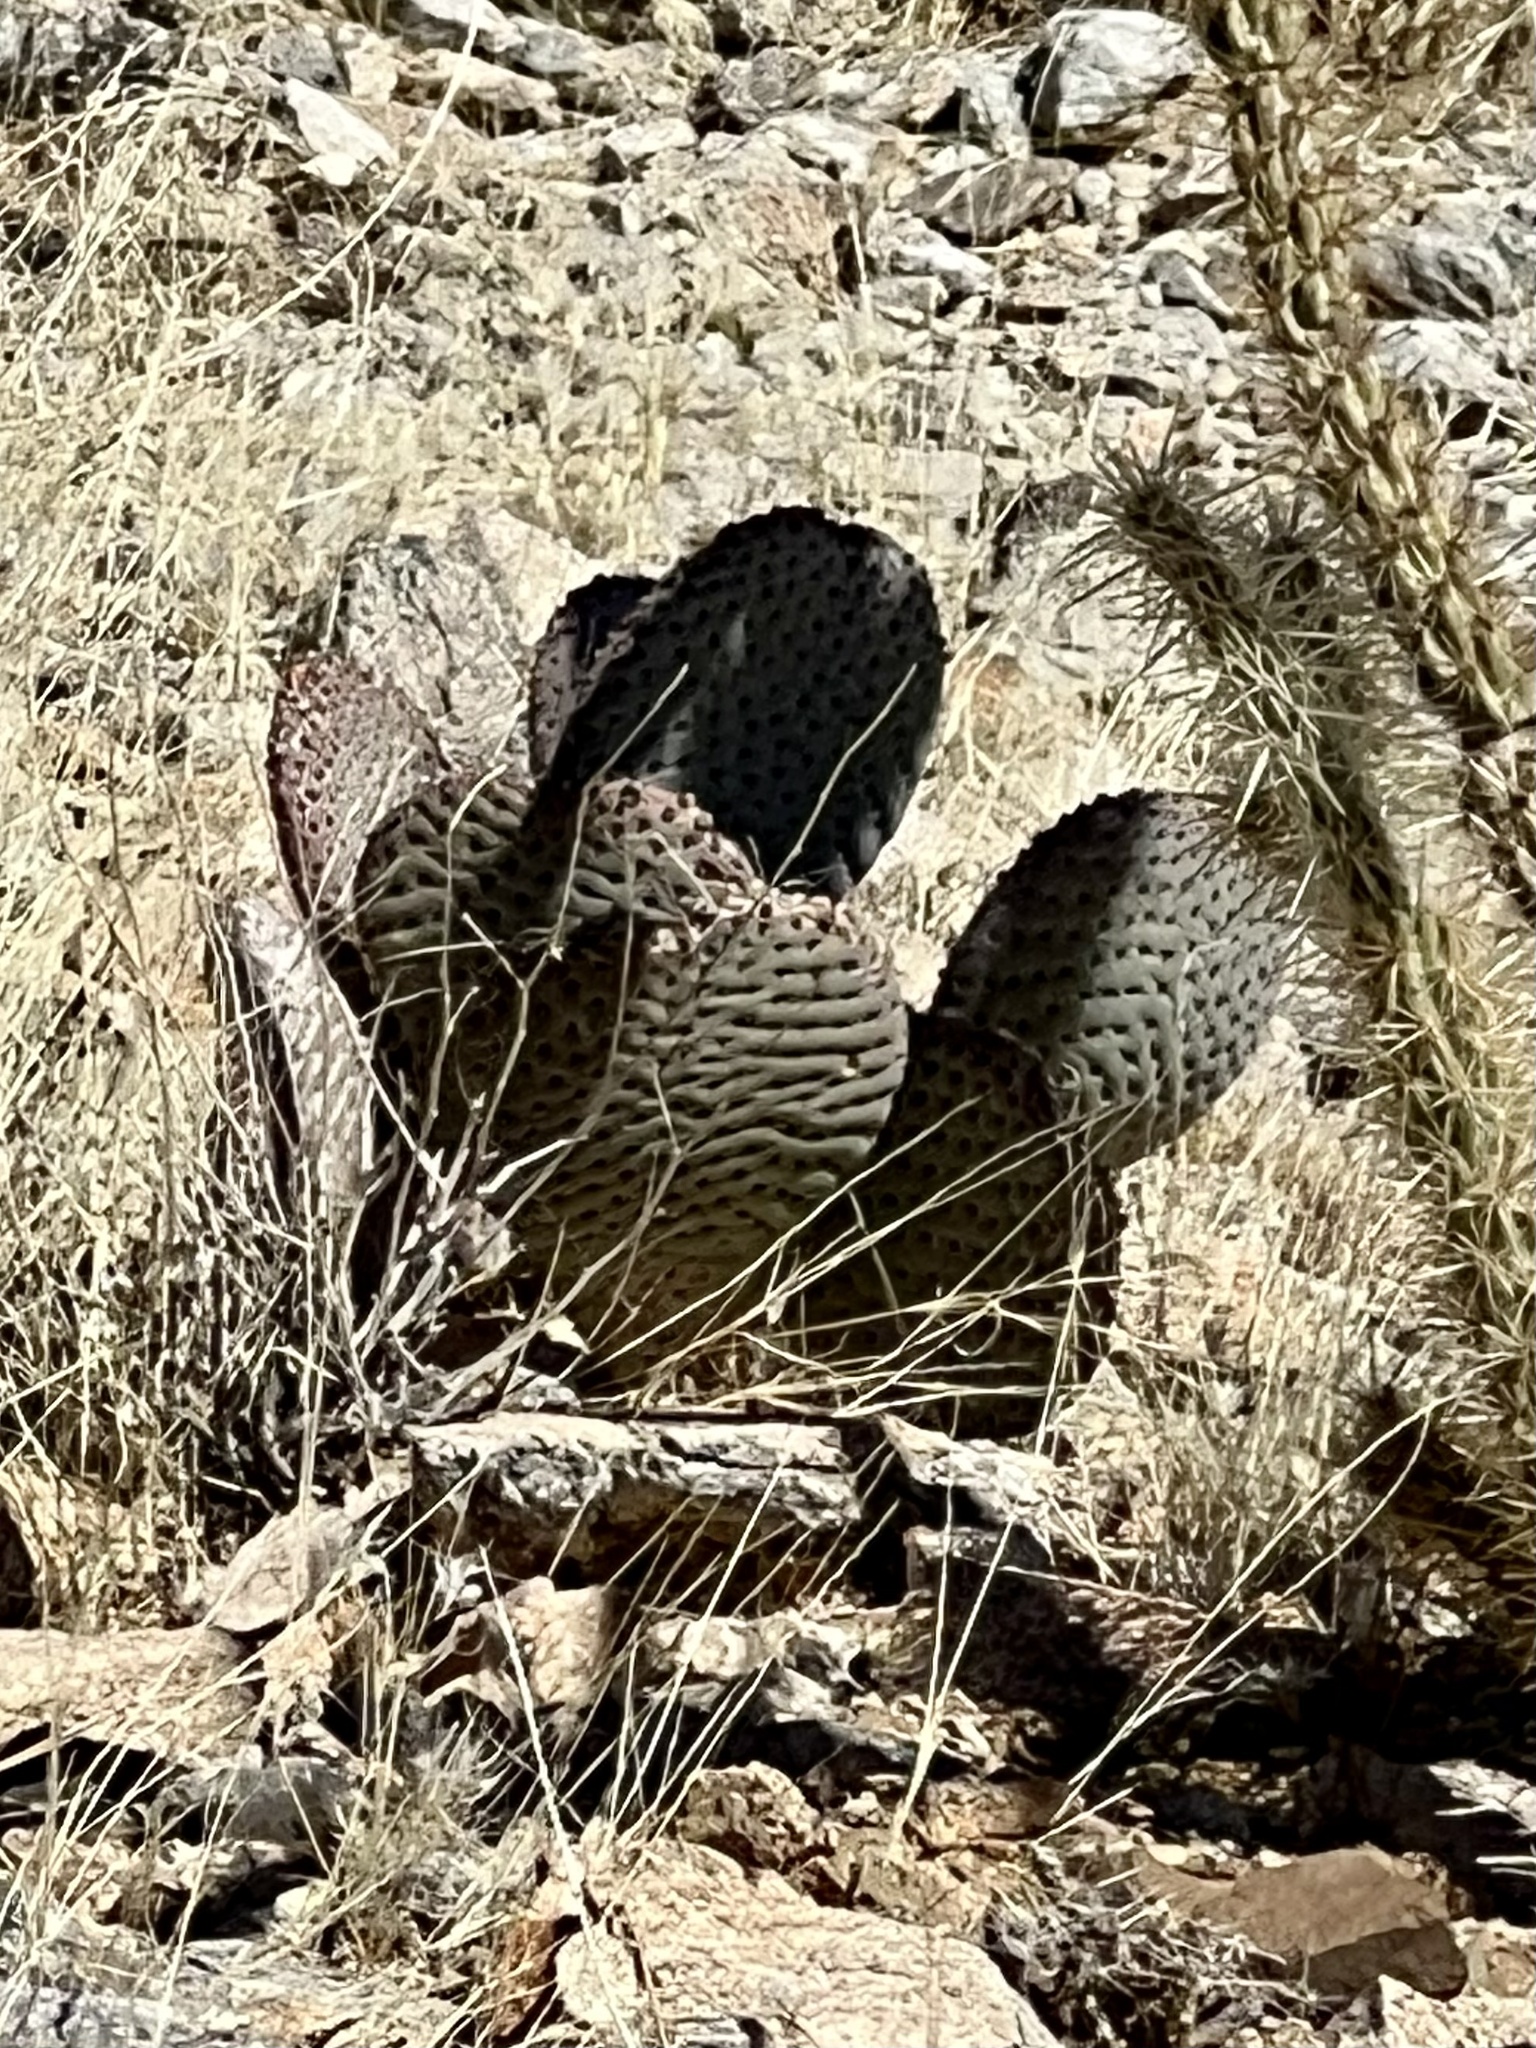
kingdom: Plantae
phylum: Tracheophyta
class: Magnoliopsida
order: Caryophyllales
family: Cactaceae
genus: Opuntia
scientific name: Opuntia basilaris
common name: Beavertail prickly-pear
